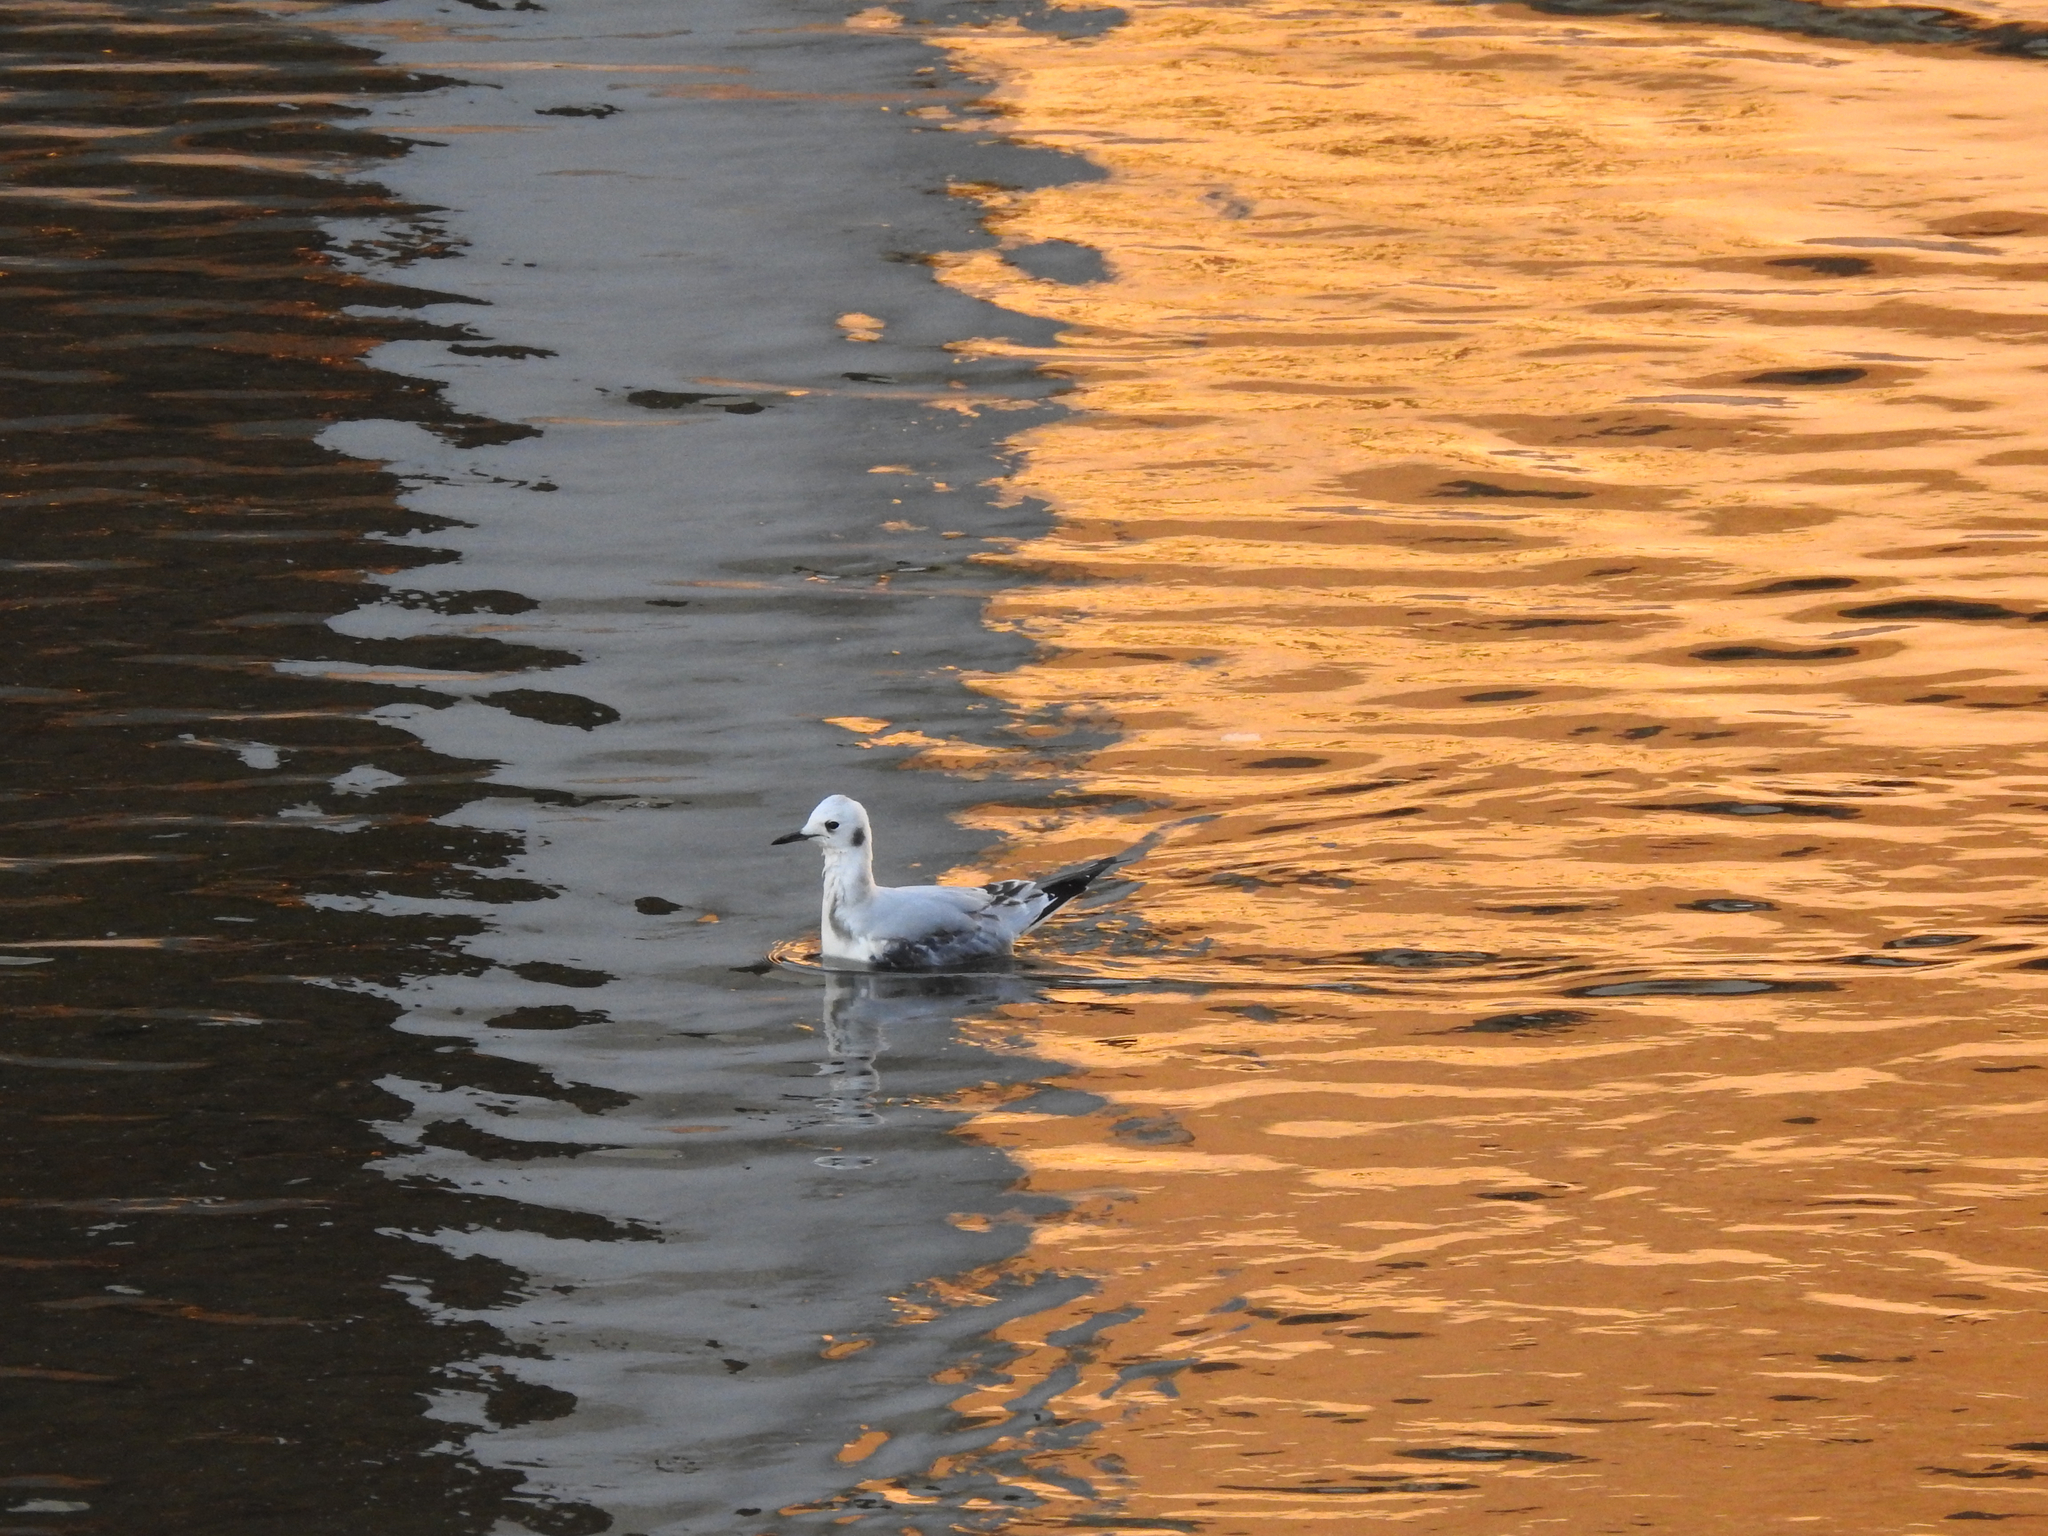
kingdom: Animalia
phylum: Chordata
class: Aves
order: Charadriiformes
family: Laridae
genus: Chroicocephalus
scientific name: Chroicocephalus philadelphia
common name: Bonaparte's gull
